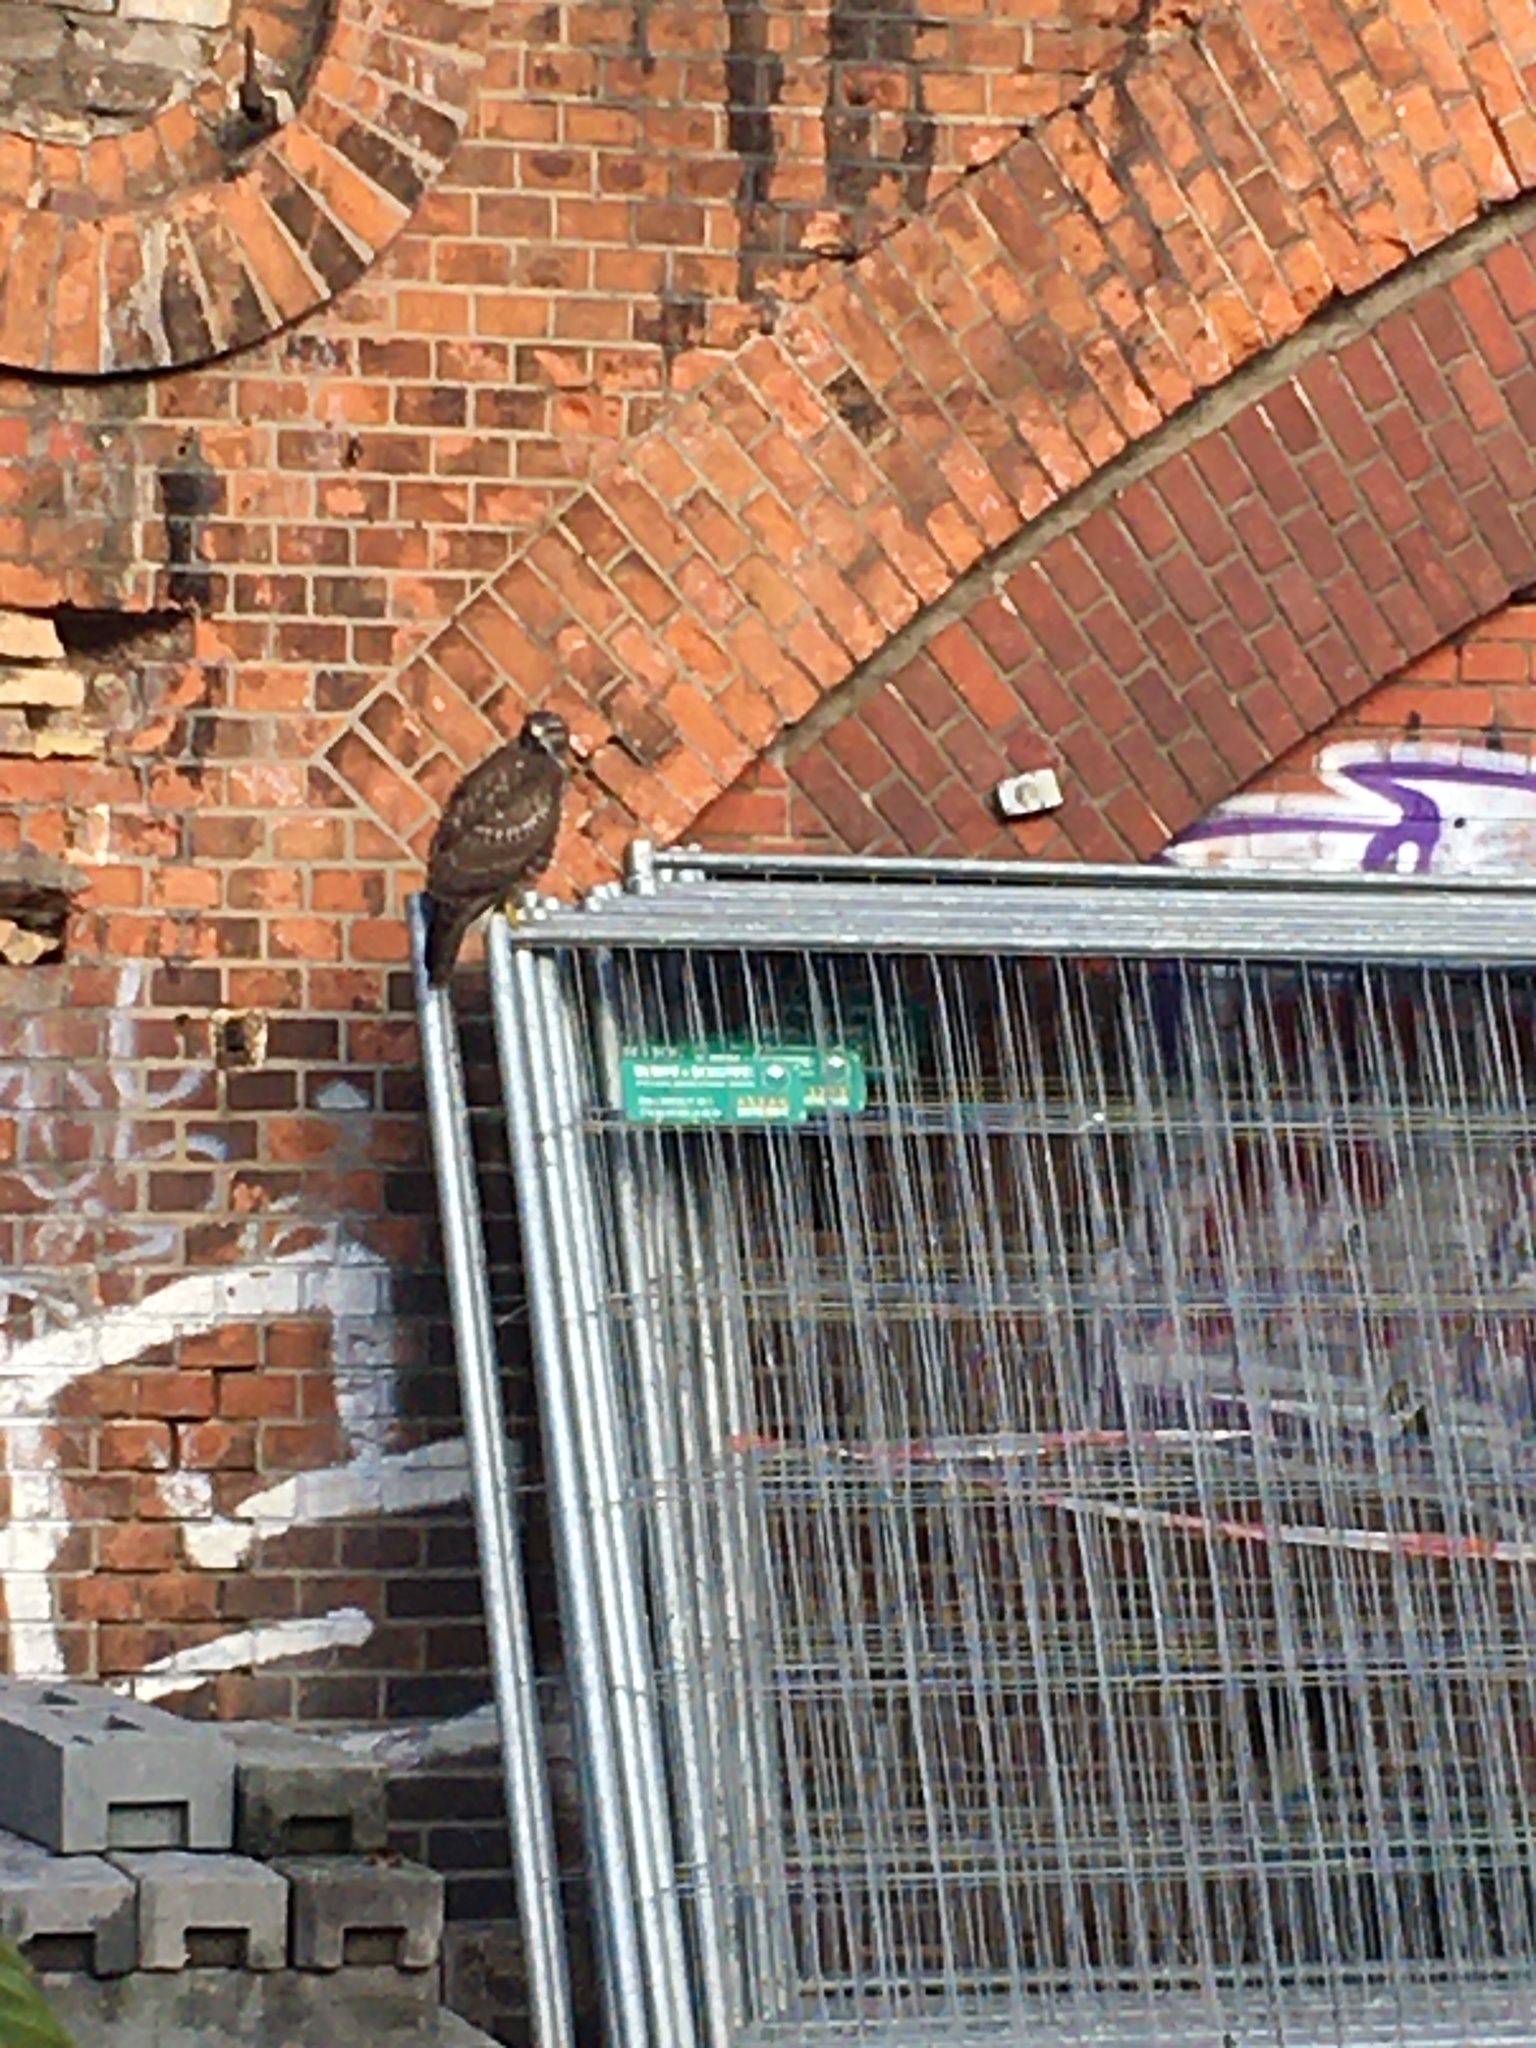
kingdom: Animalia
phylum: Chordata
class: Aves
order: Accipitriformes
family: Accipitridae
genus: Buteo
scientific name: Buteo buteo
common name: Common buzzard
